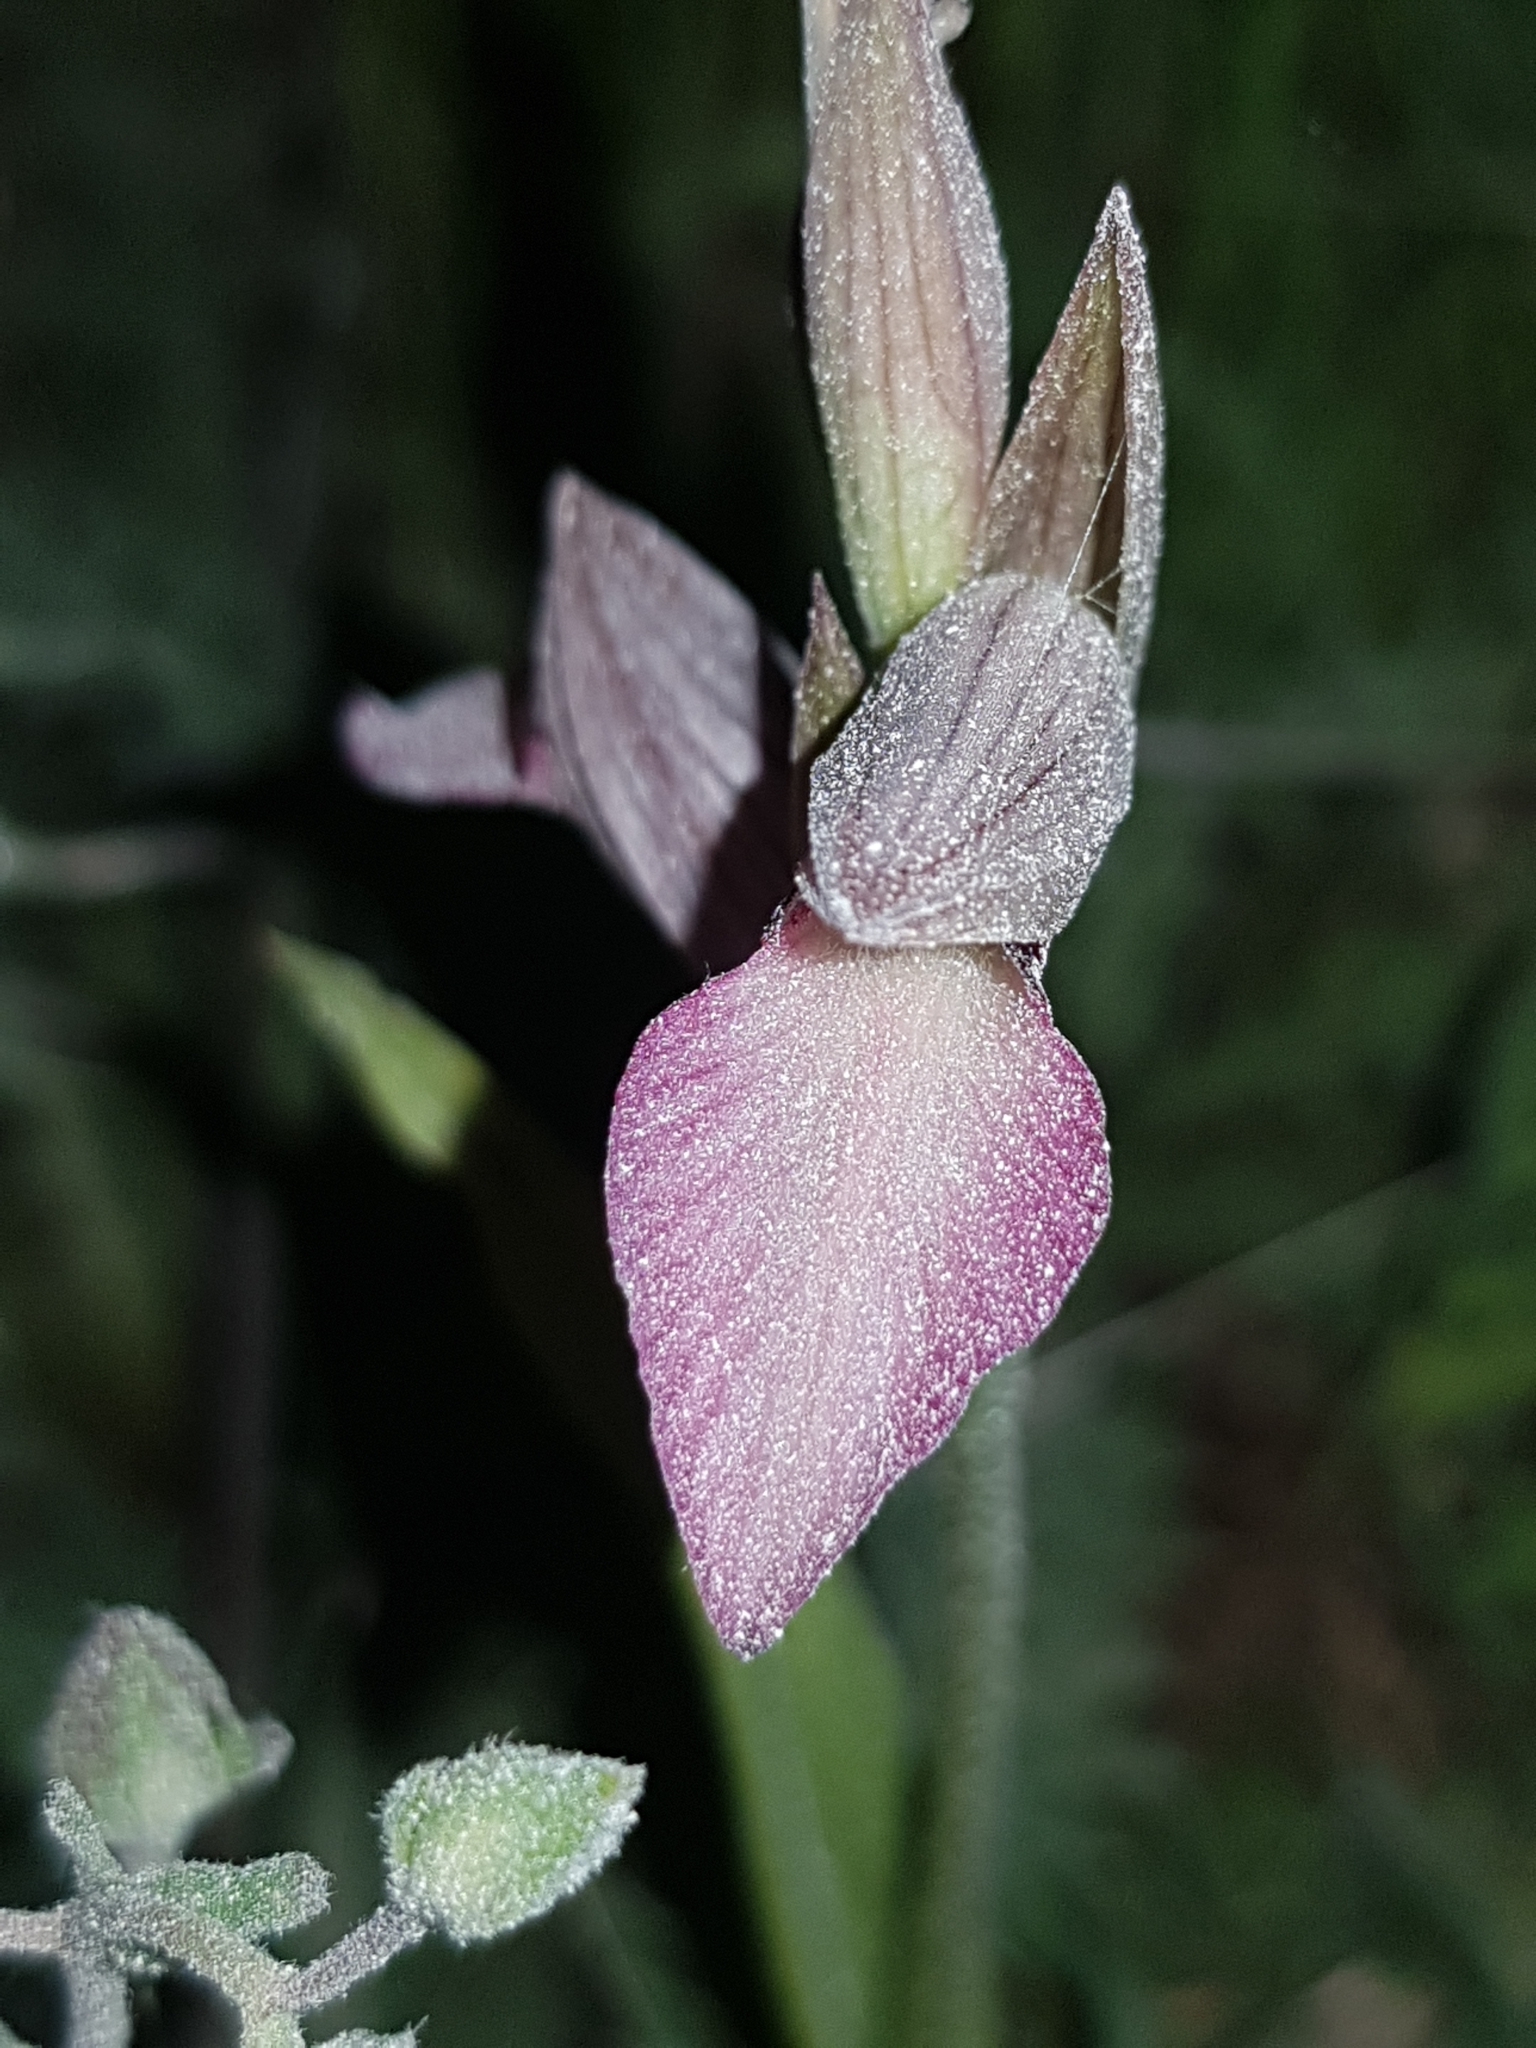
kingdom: Plantae
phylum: Tracheophyta
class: Liliopsida
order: Asparagales
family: Orchidaceae
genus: Serapias
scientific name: Serapias lingua
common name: Tongue-orchid
